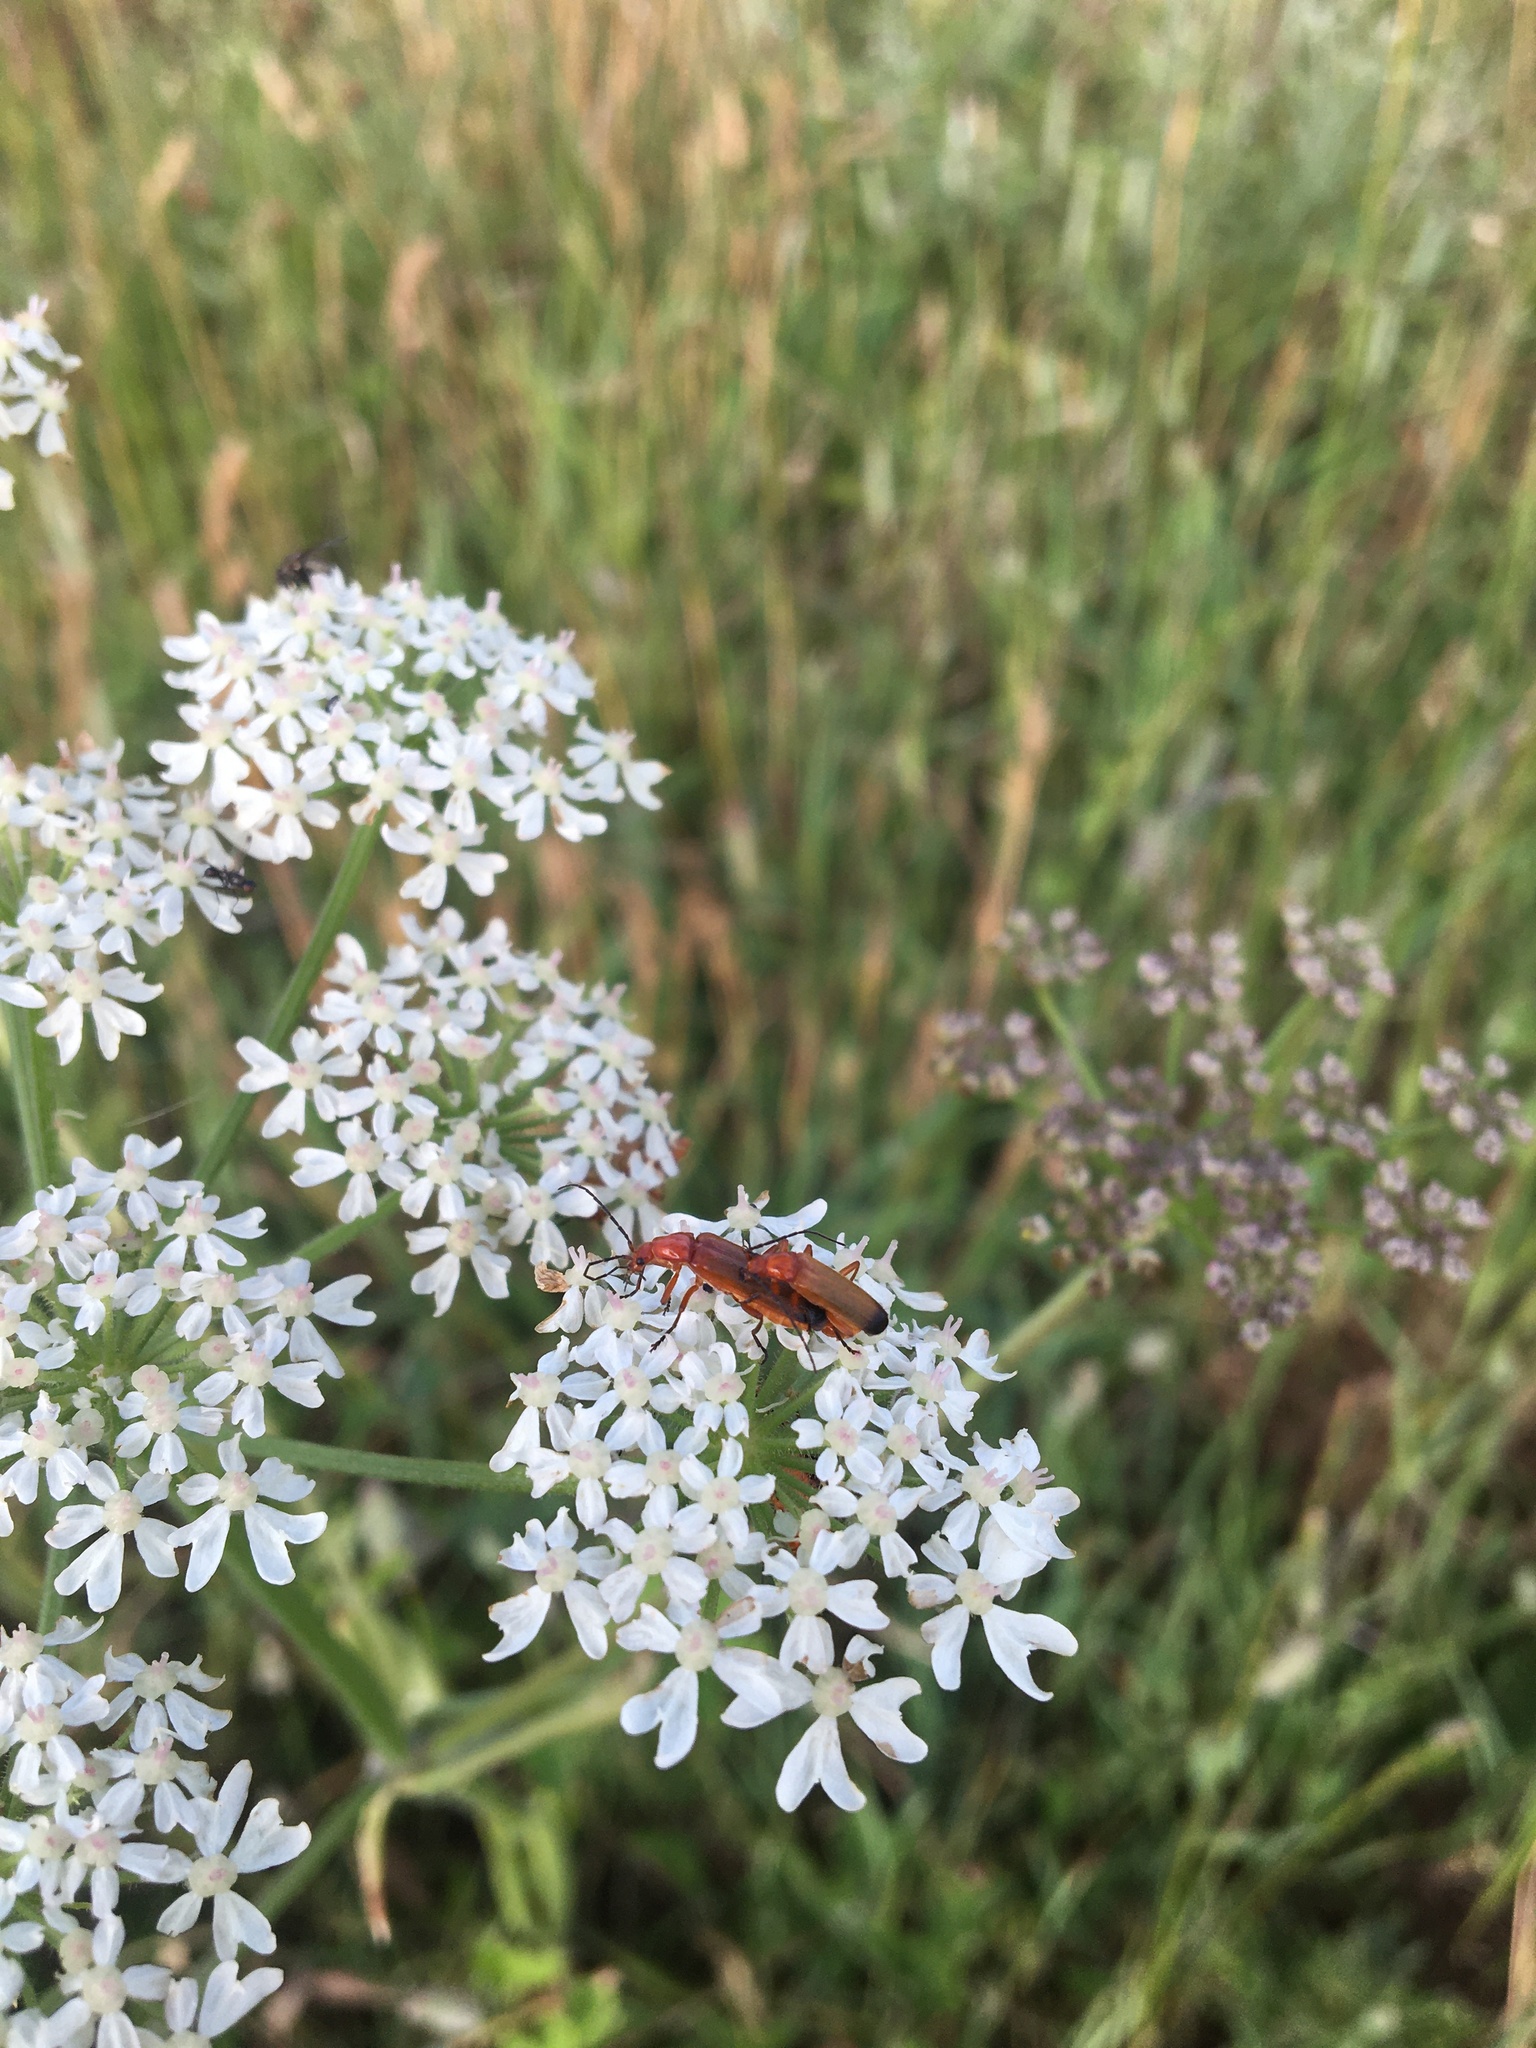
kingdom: Animalia
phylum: Arthropoda
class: Insecta
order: Coleoptera
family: Cantharidae
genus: Rhagonycha
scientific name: Rhagonycha fulva
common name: Common red soldier beetle
